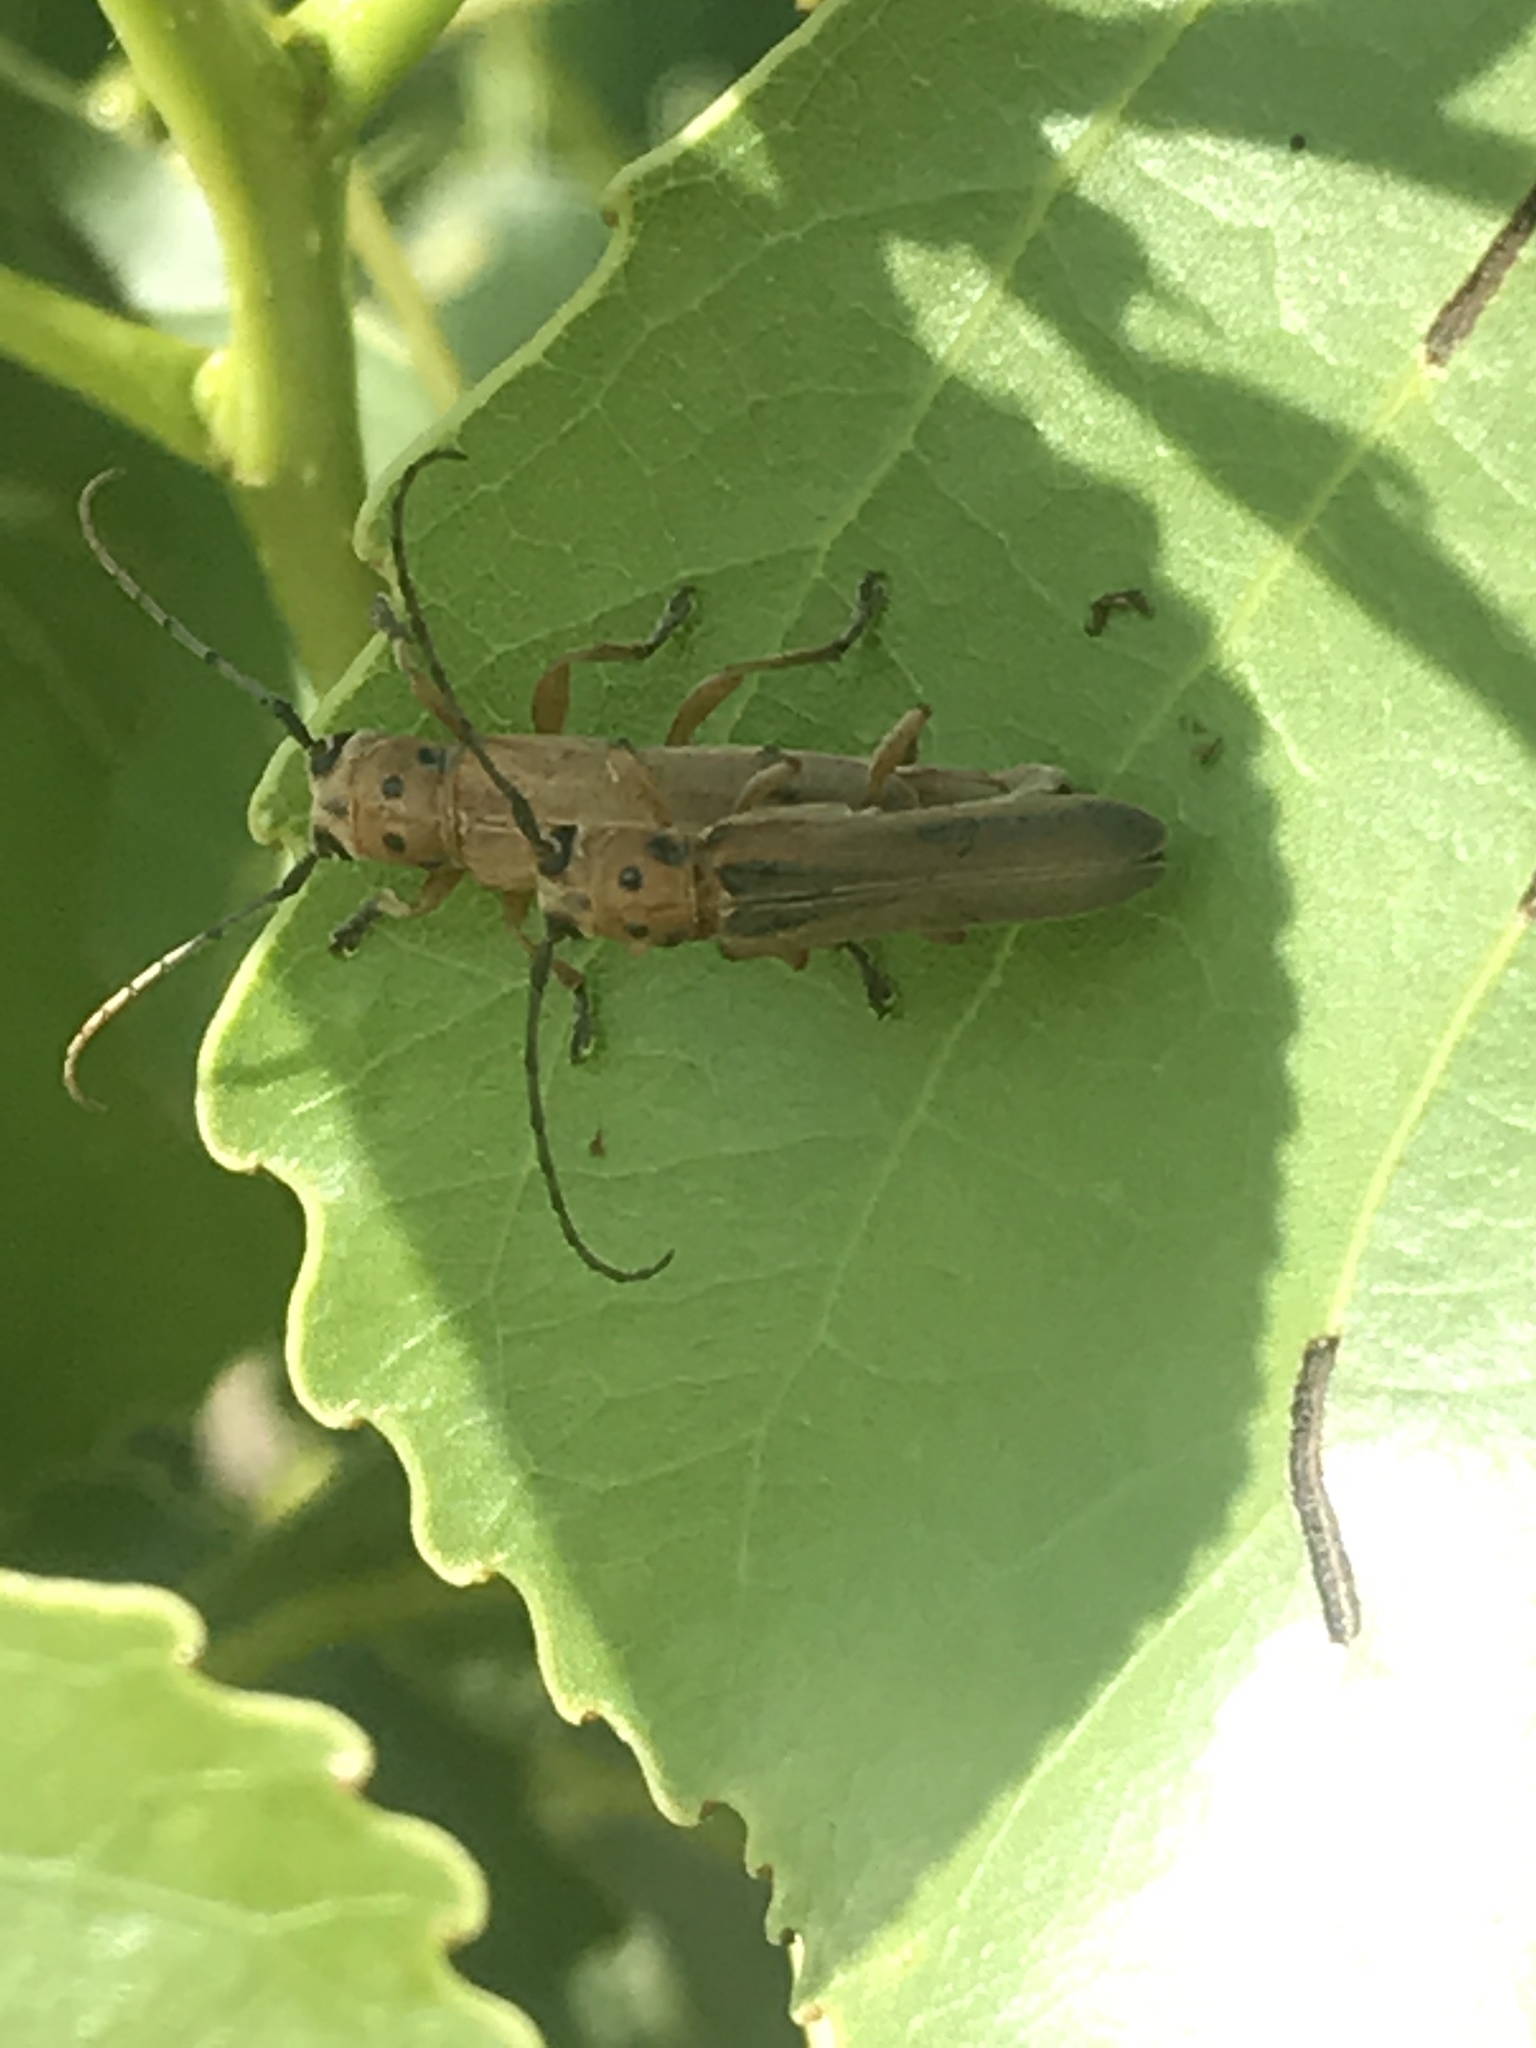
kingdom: Animalia
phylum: Arthropoda
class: Insecta
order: Coleoptera
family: Cerambycidae
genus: Oberea
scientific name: Oberea schaumii
